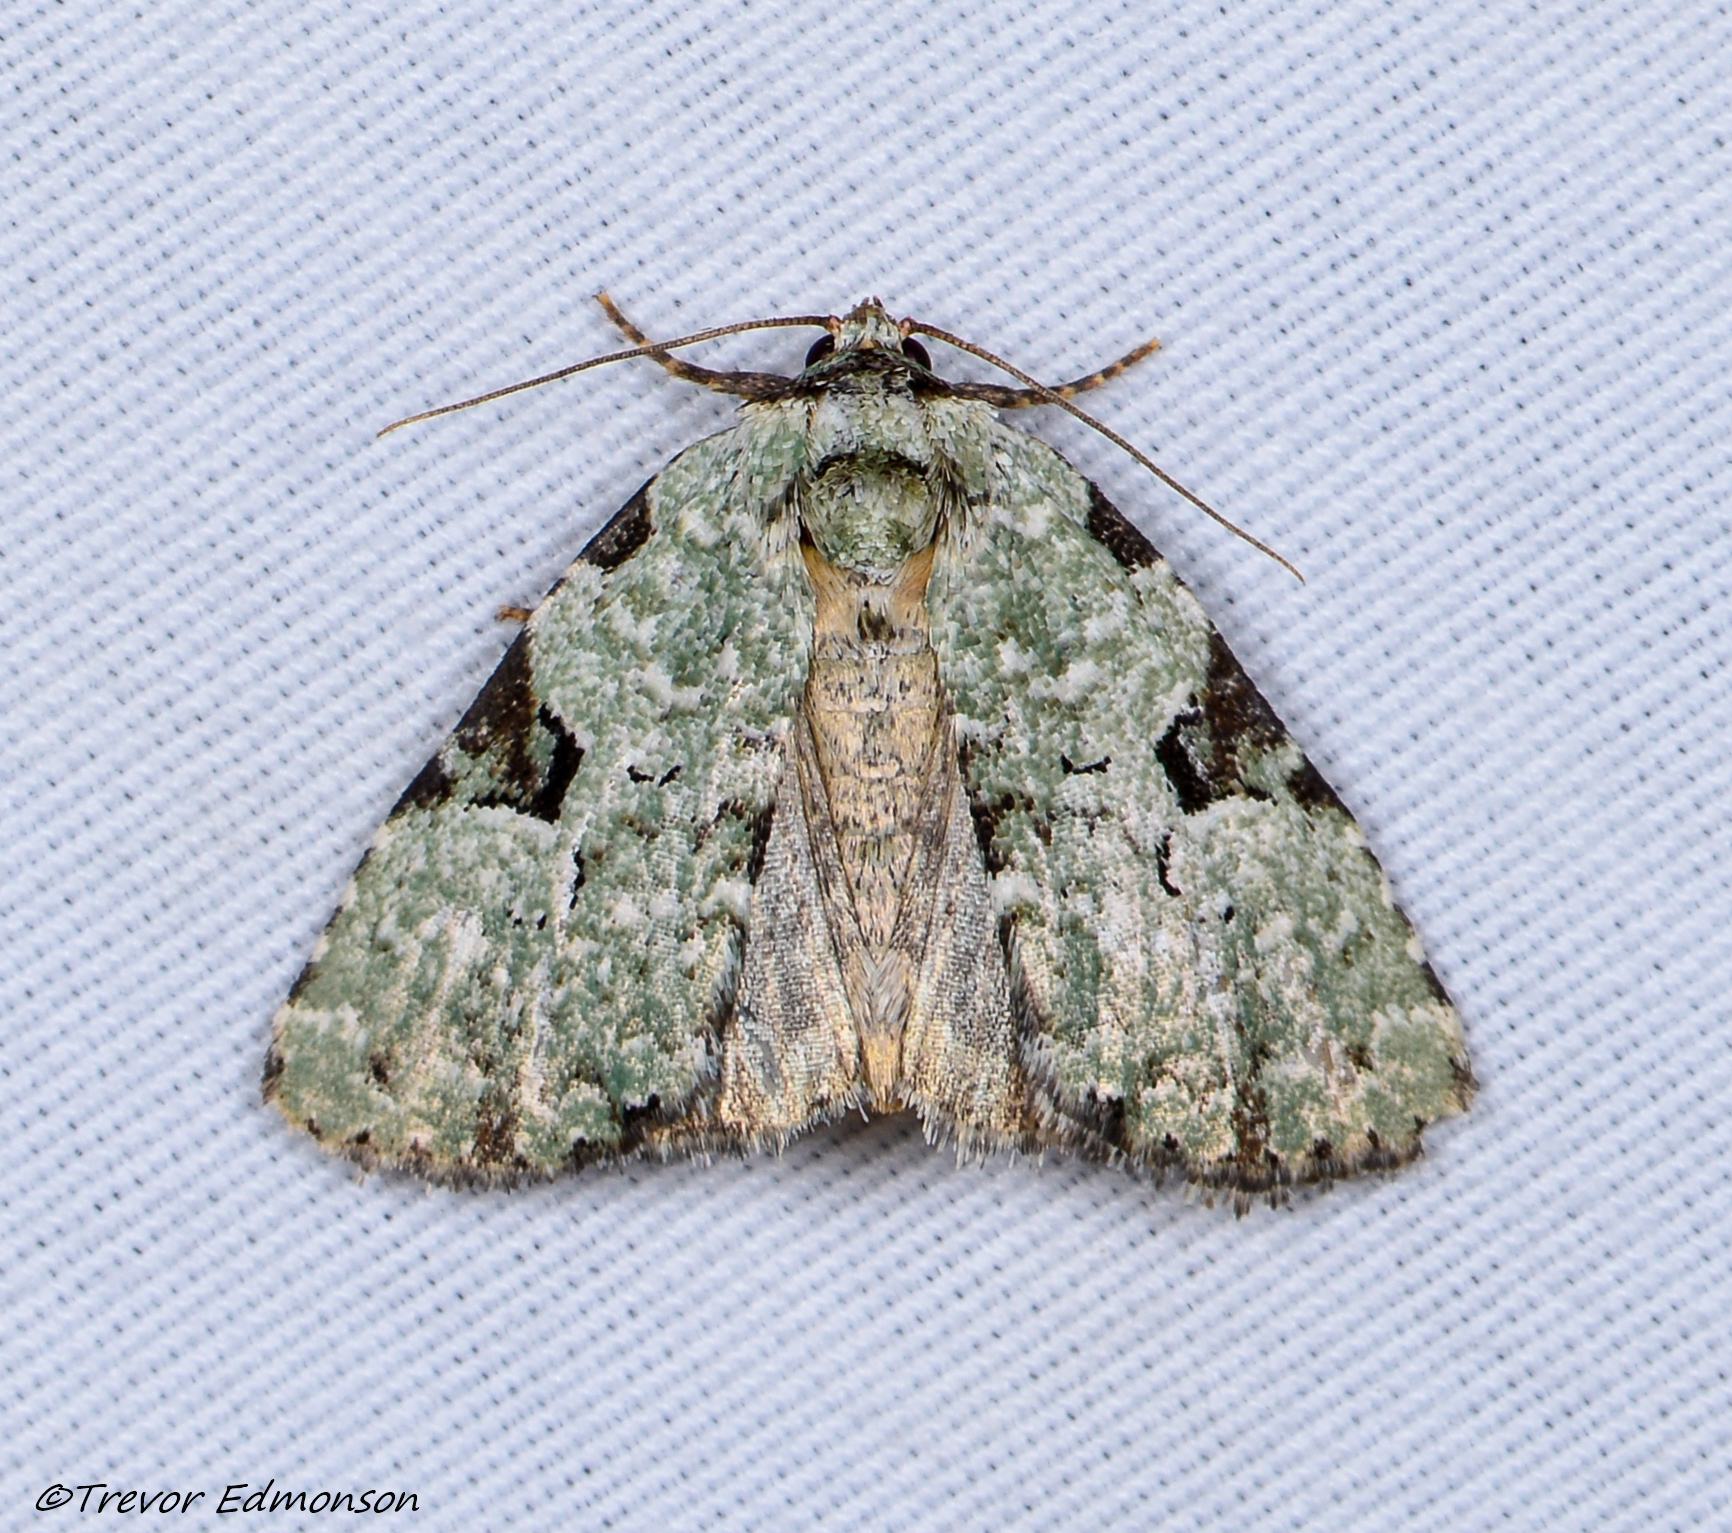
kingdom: Animalia
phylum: Arthropoda
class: Insecta
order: Lepidoptera
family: Noctuidae
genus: Leuconycta
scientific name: Leuconycta diphteroides
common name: Green leuconycta moth
